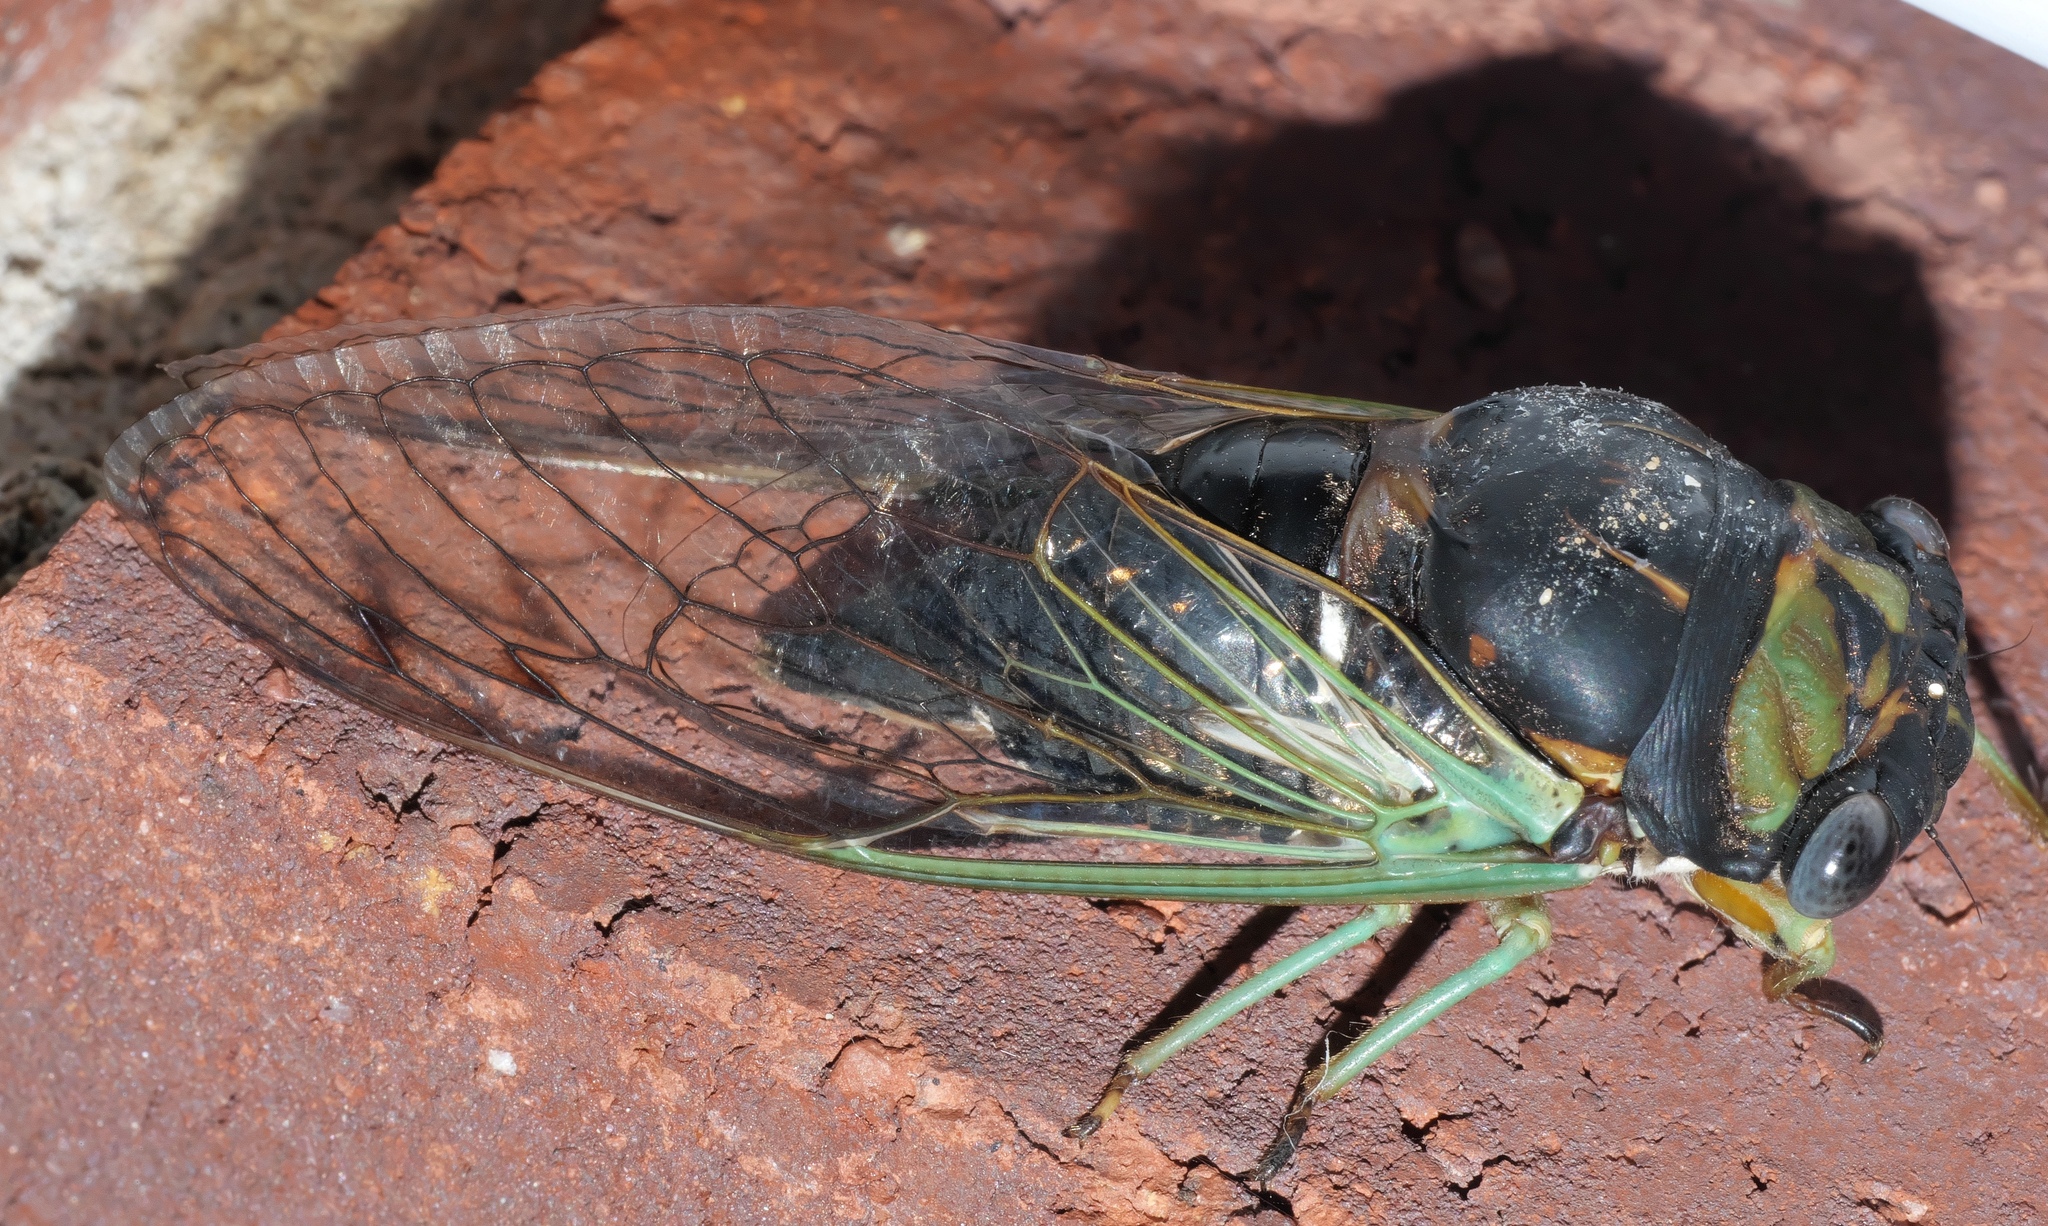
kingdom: Animalia
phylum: Arthropoda
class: Insecta
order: Hemiptera
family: Cicadidae
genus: Neotibicen
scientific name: Neotibicen tibicen
